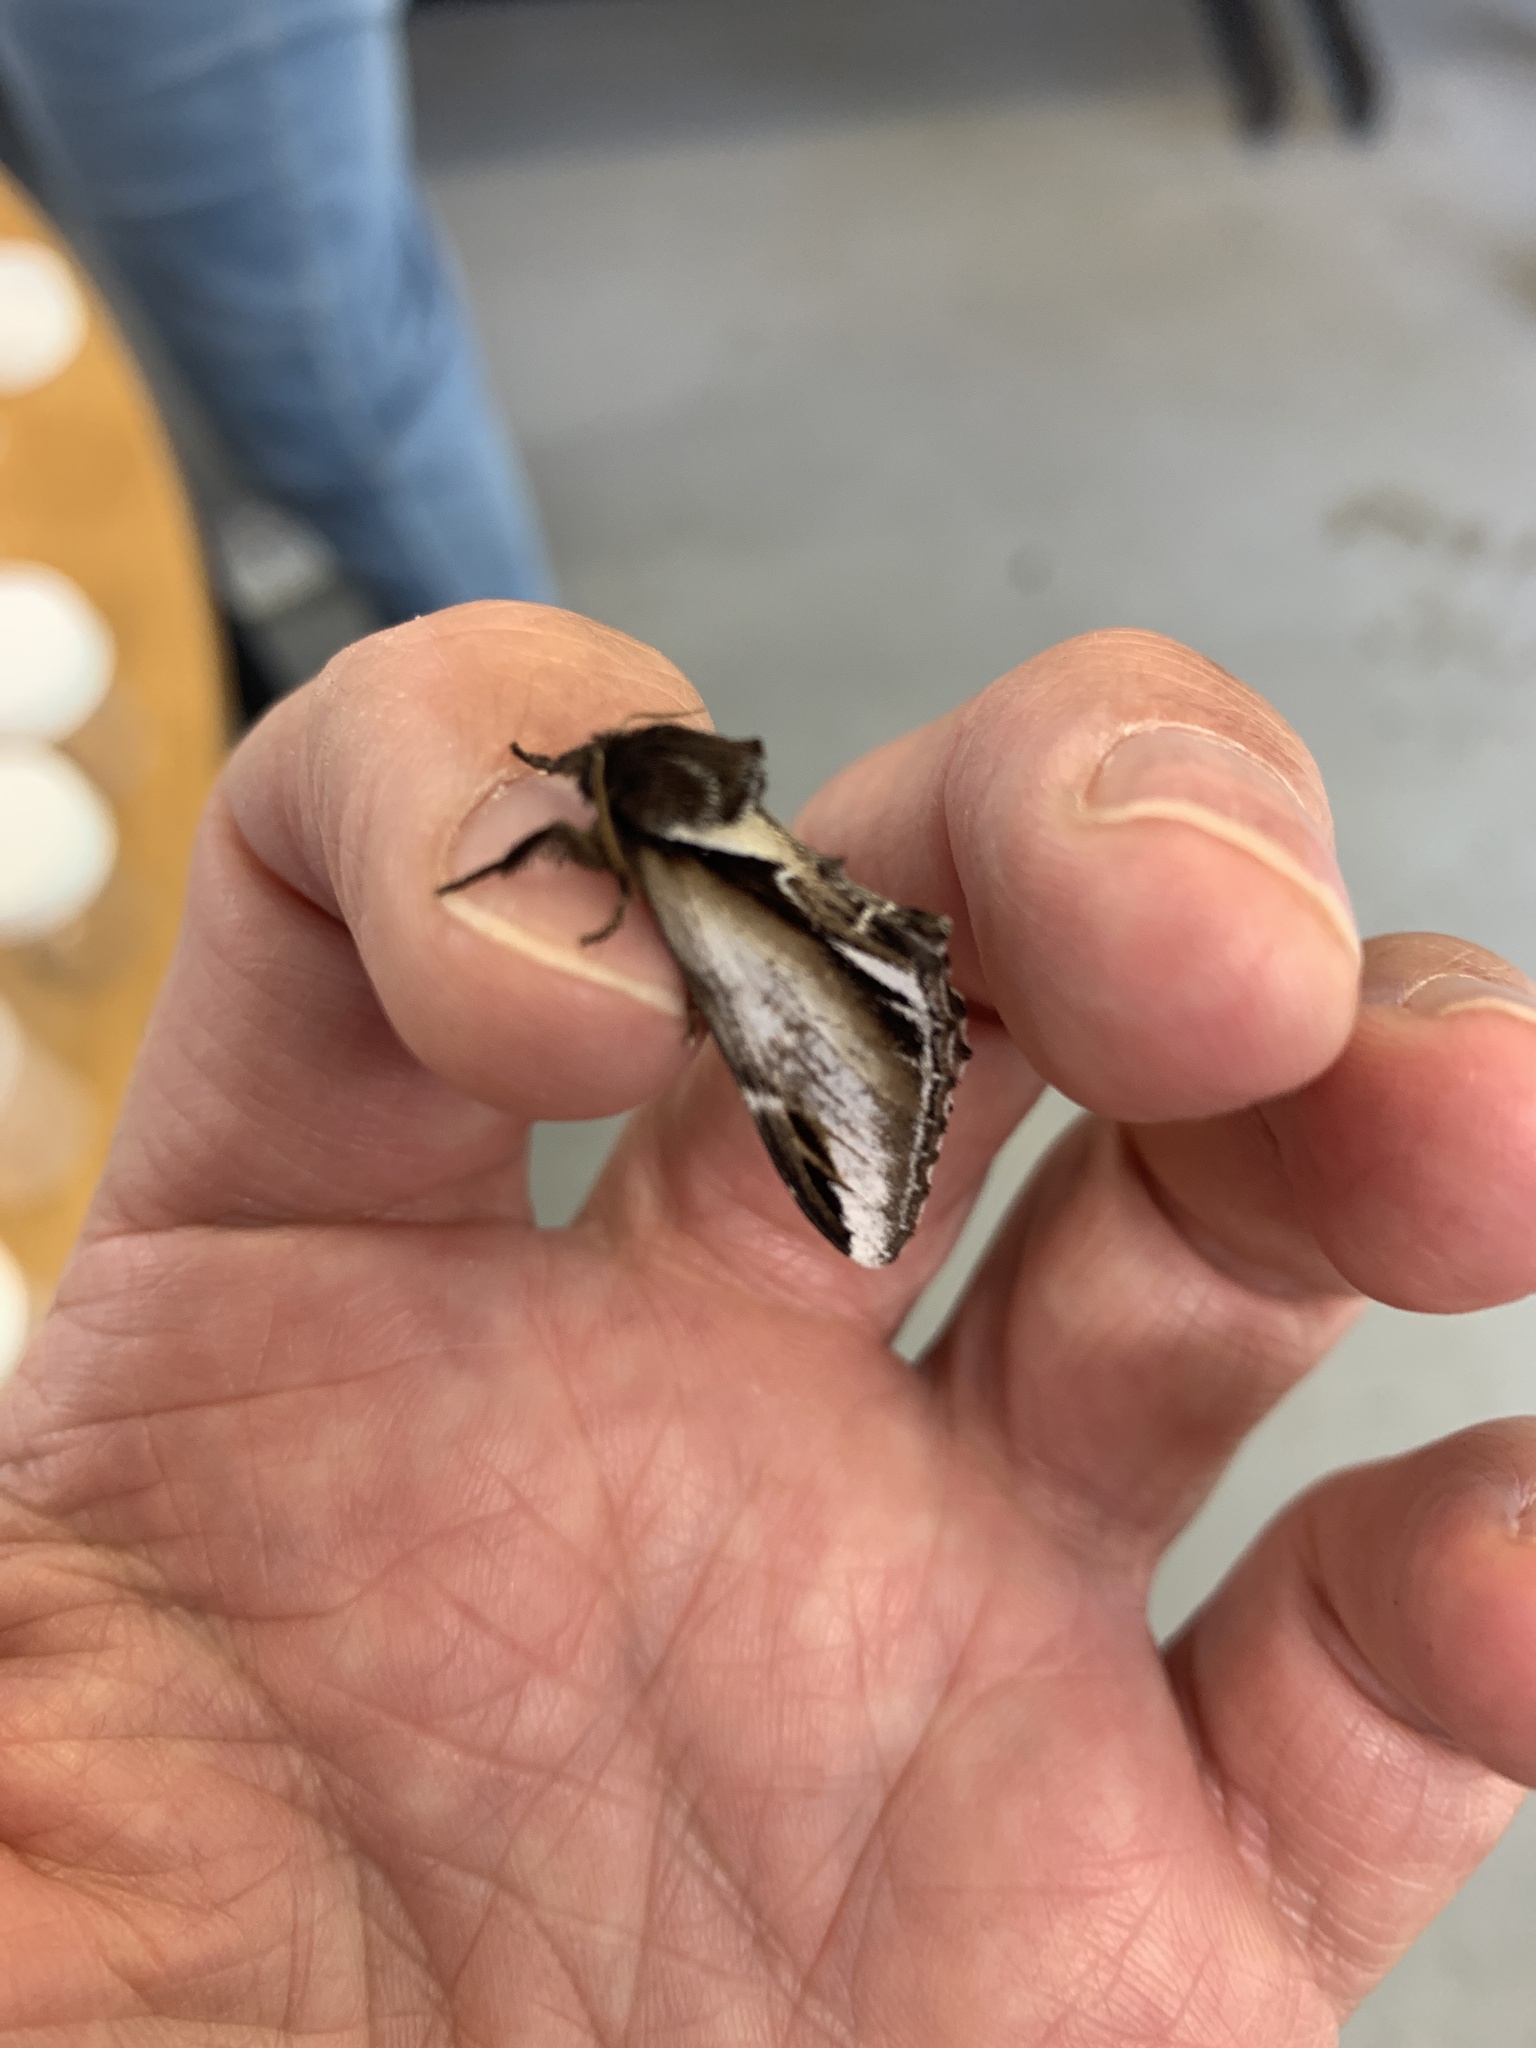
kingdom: Animalia
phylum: Arthropoda
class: Insecta
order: Lepidoptera
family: Notodontidae
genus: Pheosia
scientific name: Pheosia gnoma
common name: Lesser swallow prominent
